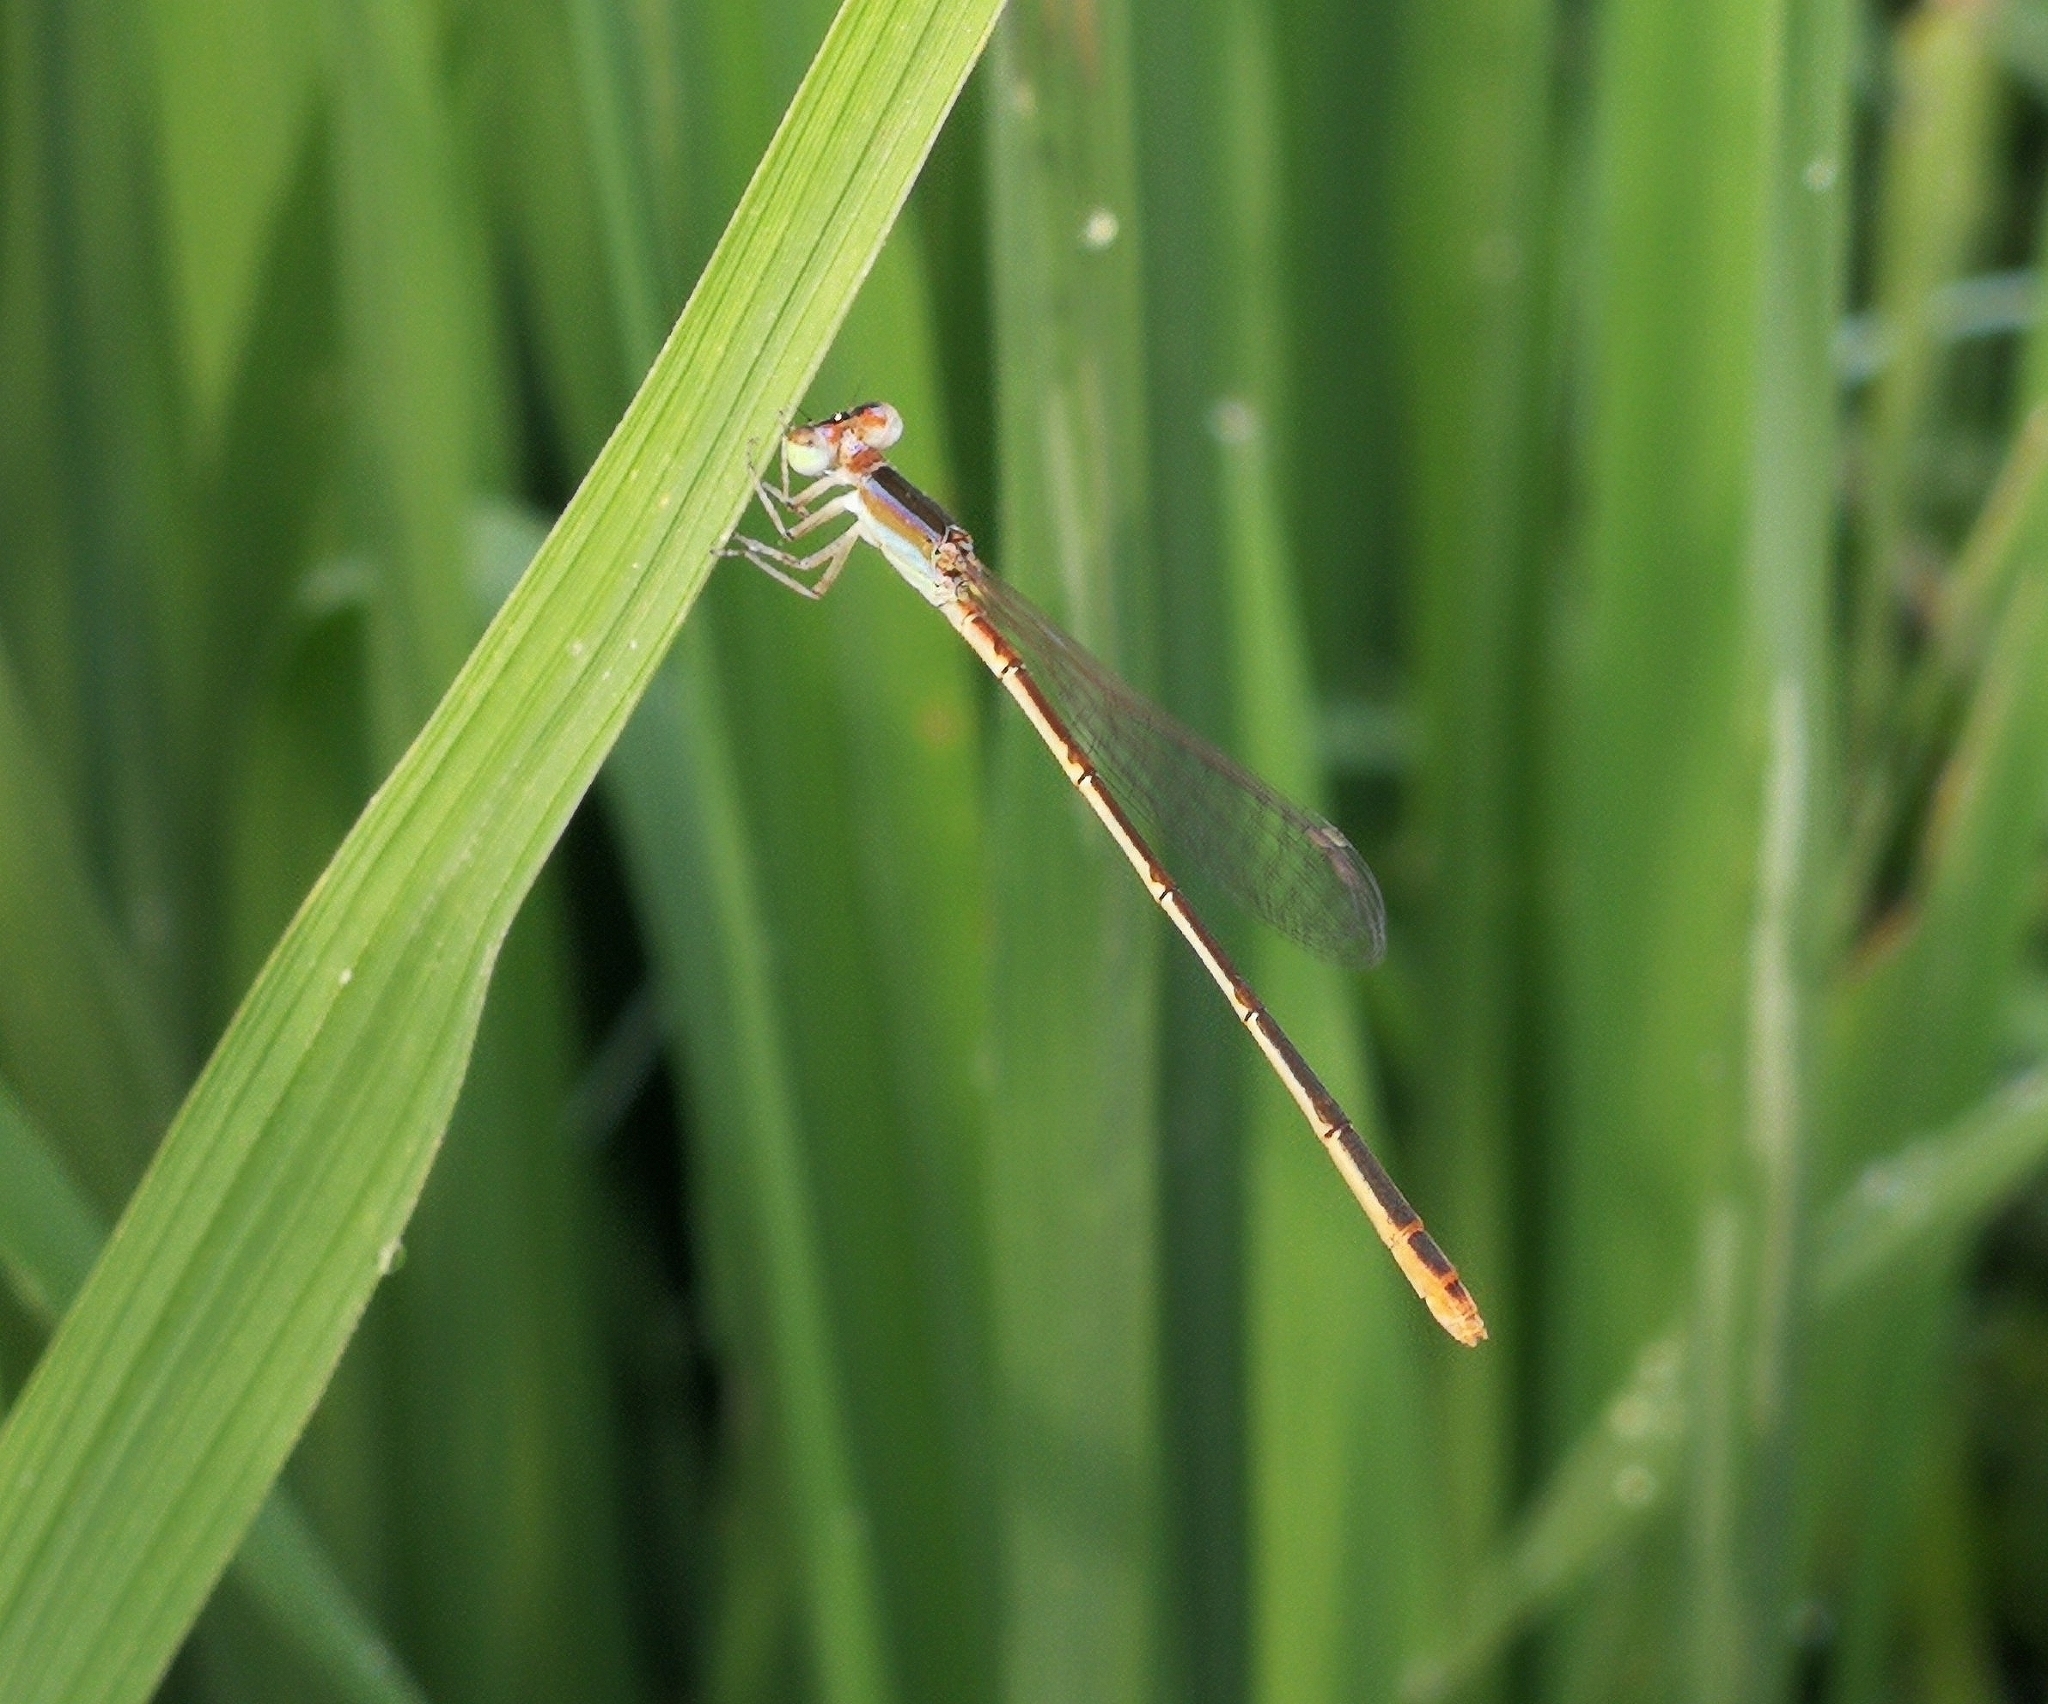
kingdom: Animalia
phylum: Arthropoda
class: Insecta
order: Odonata
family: Coenagrionidae
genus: Agriocnemis
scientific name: Agriocnemis pygmaea
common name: Pygmy wisp
